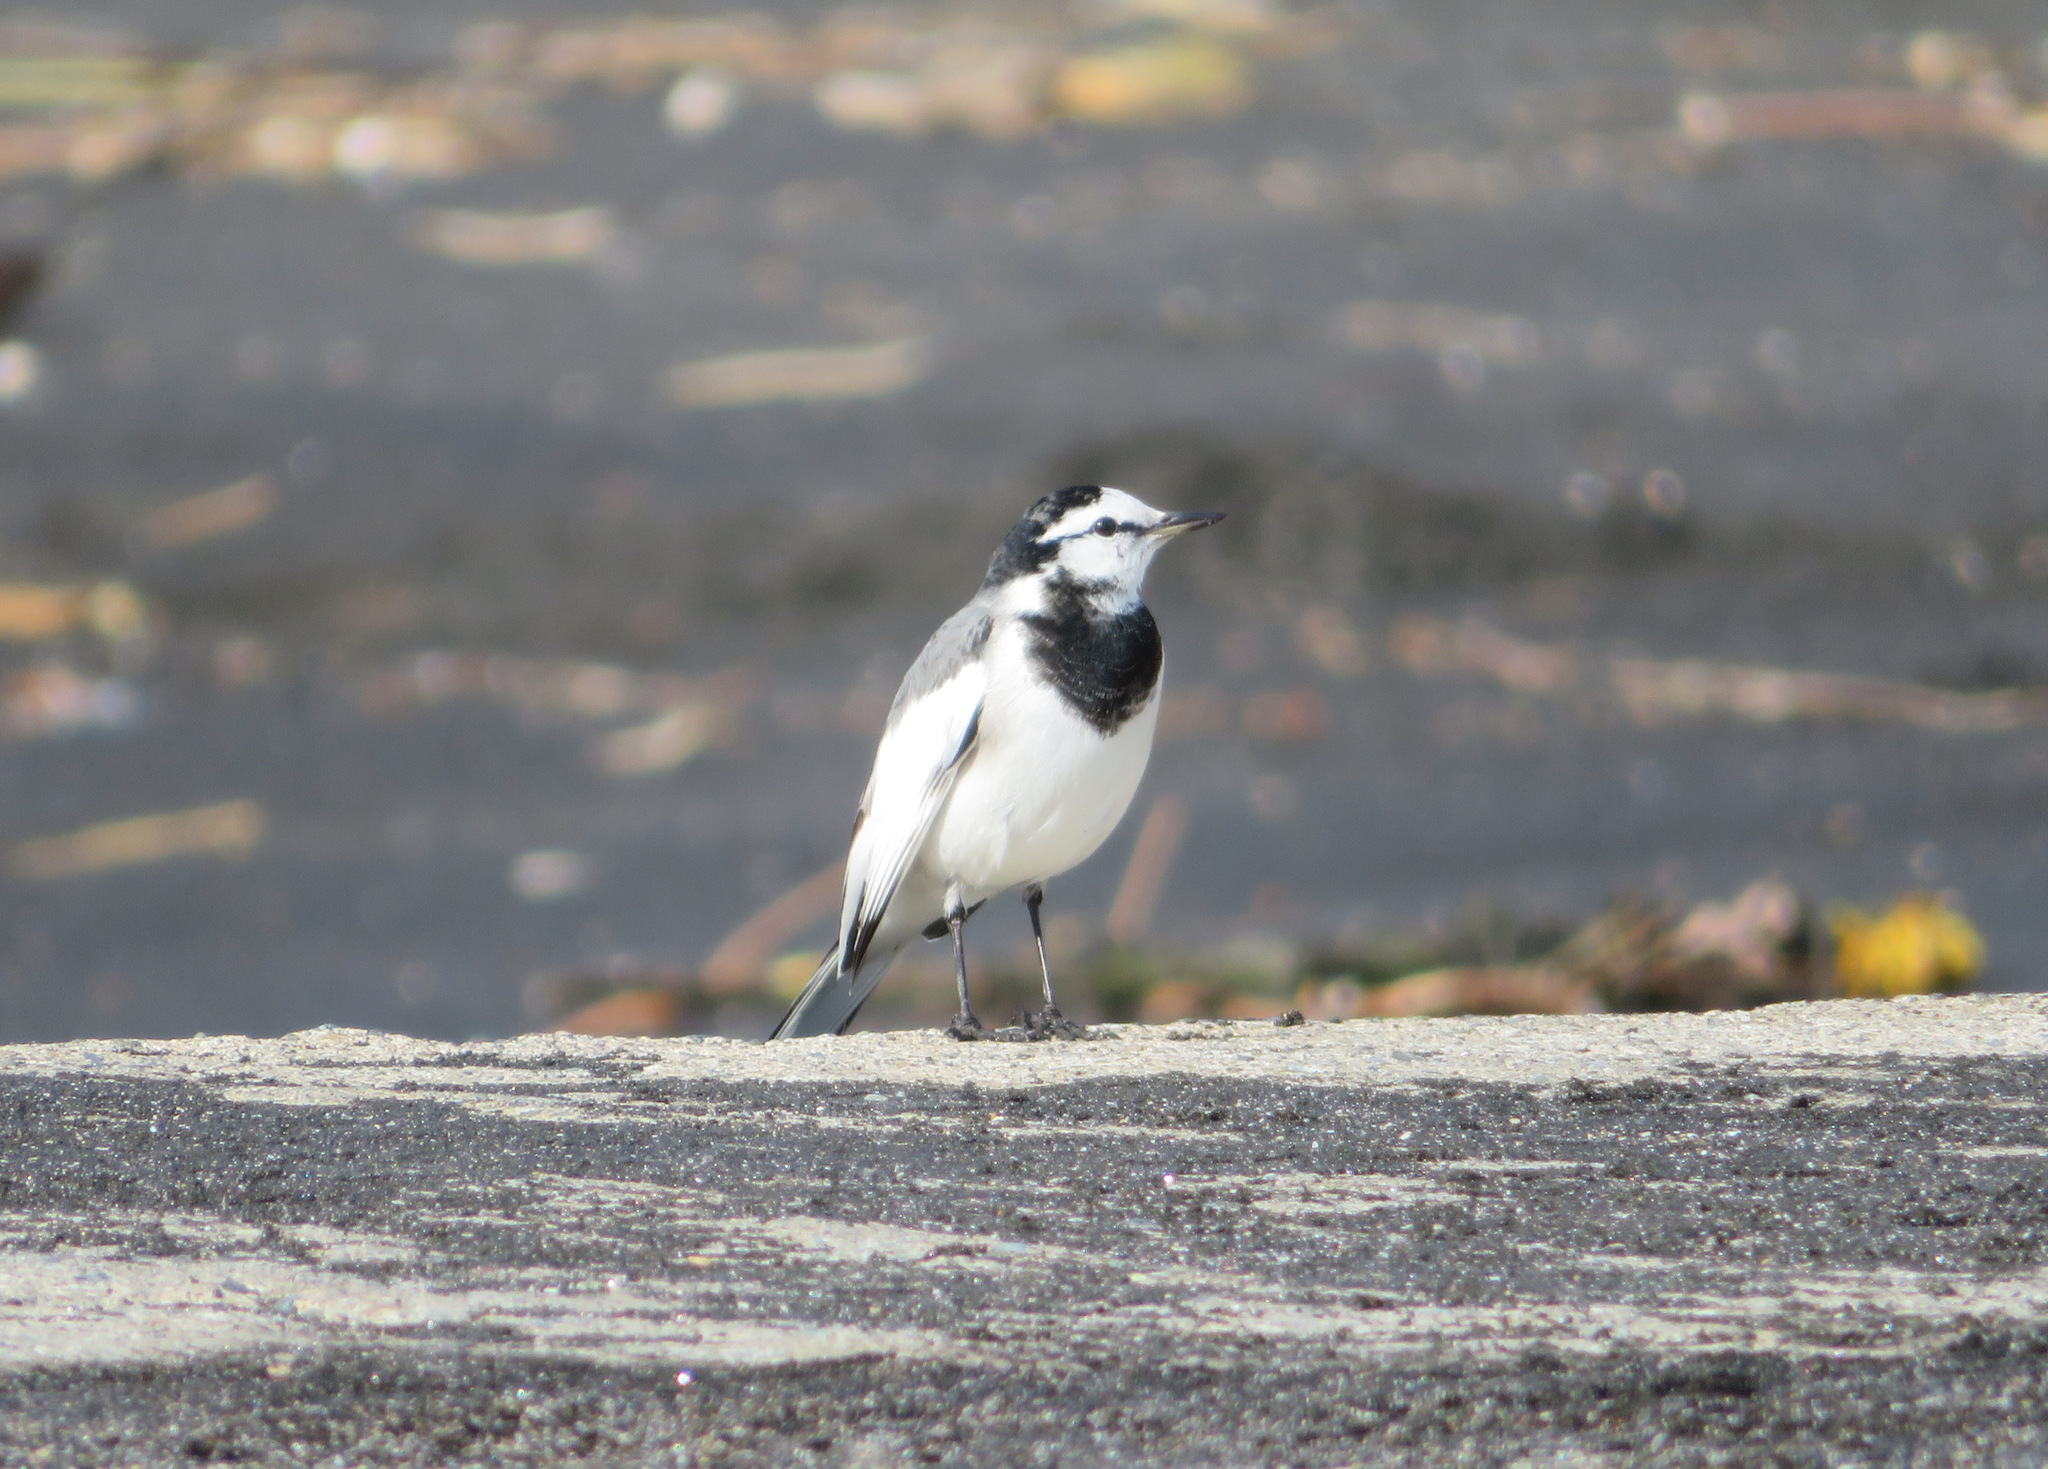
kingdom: Animalia
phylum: Chordata
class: Aves
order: Passeriformes
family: Motacillidae
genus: Motacilla
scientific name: Motacilla alba
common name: White wagtail
